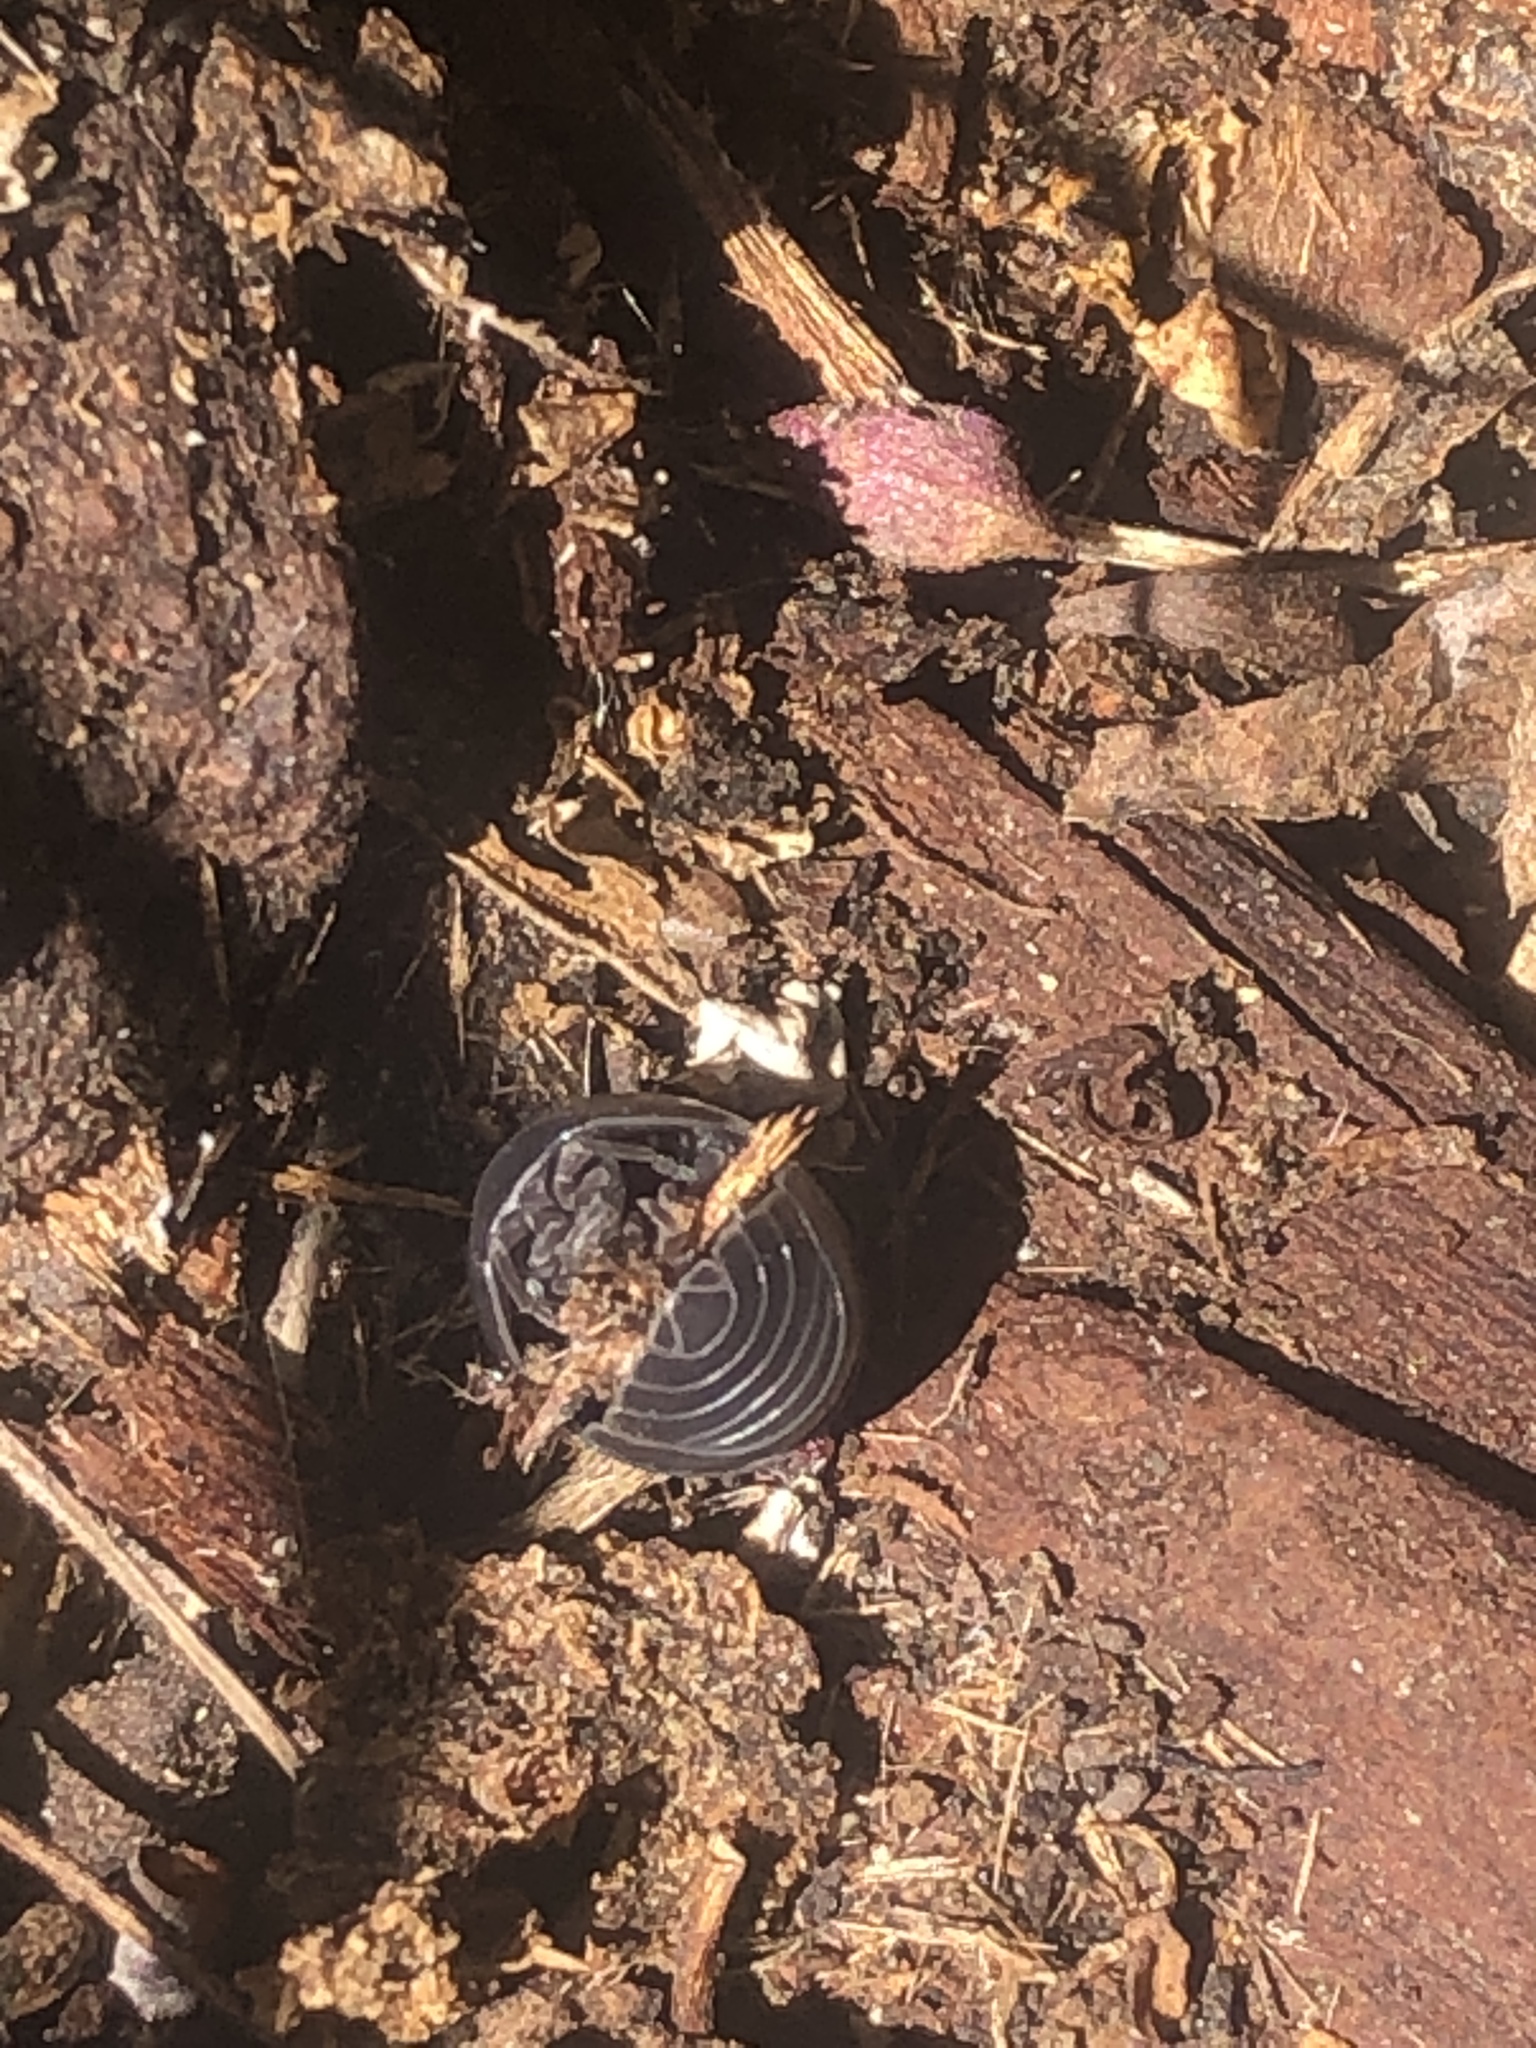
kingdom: Animalia
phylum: Arthropoda
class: Malacostraca
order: Isopoda
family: Armadillidiidae
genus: Armadillidium
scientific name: Armadillidium vulgare
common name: Common pill woodlouse
